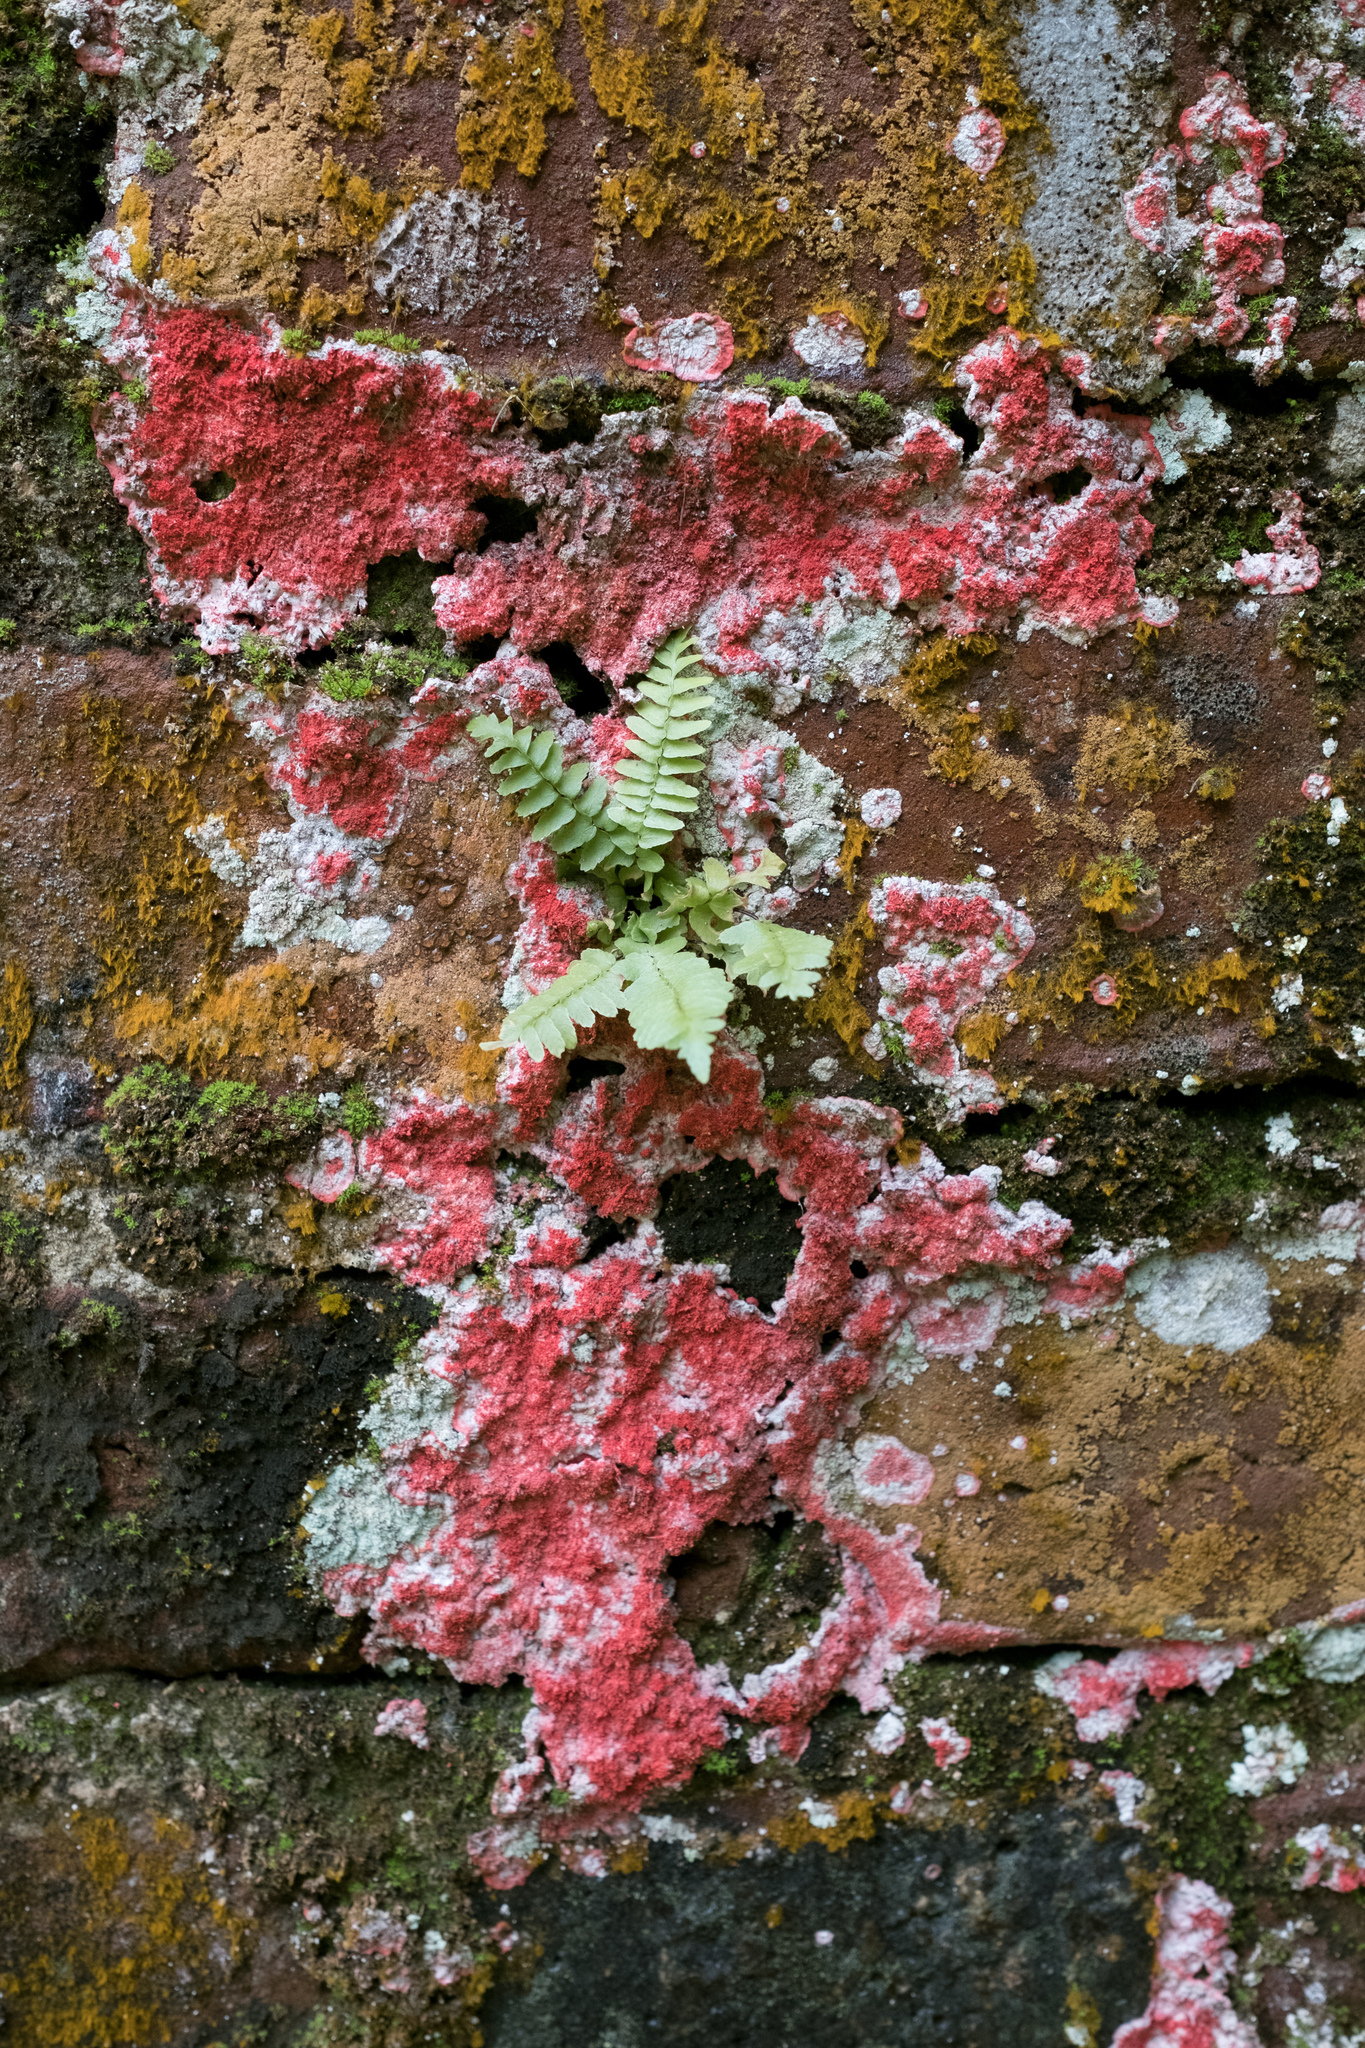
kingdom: Fungi
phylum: Ascomycota
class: Arthoniomycetes
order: Arthoniales
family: Arthoniaceae
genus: Herpothallon
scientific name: Herpothallon rubrocinctum
